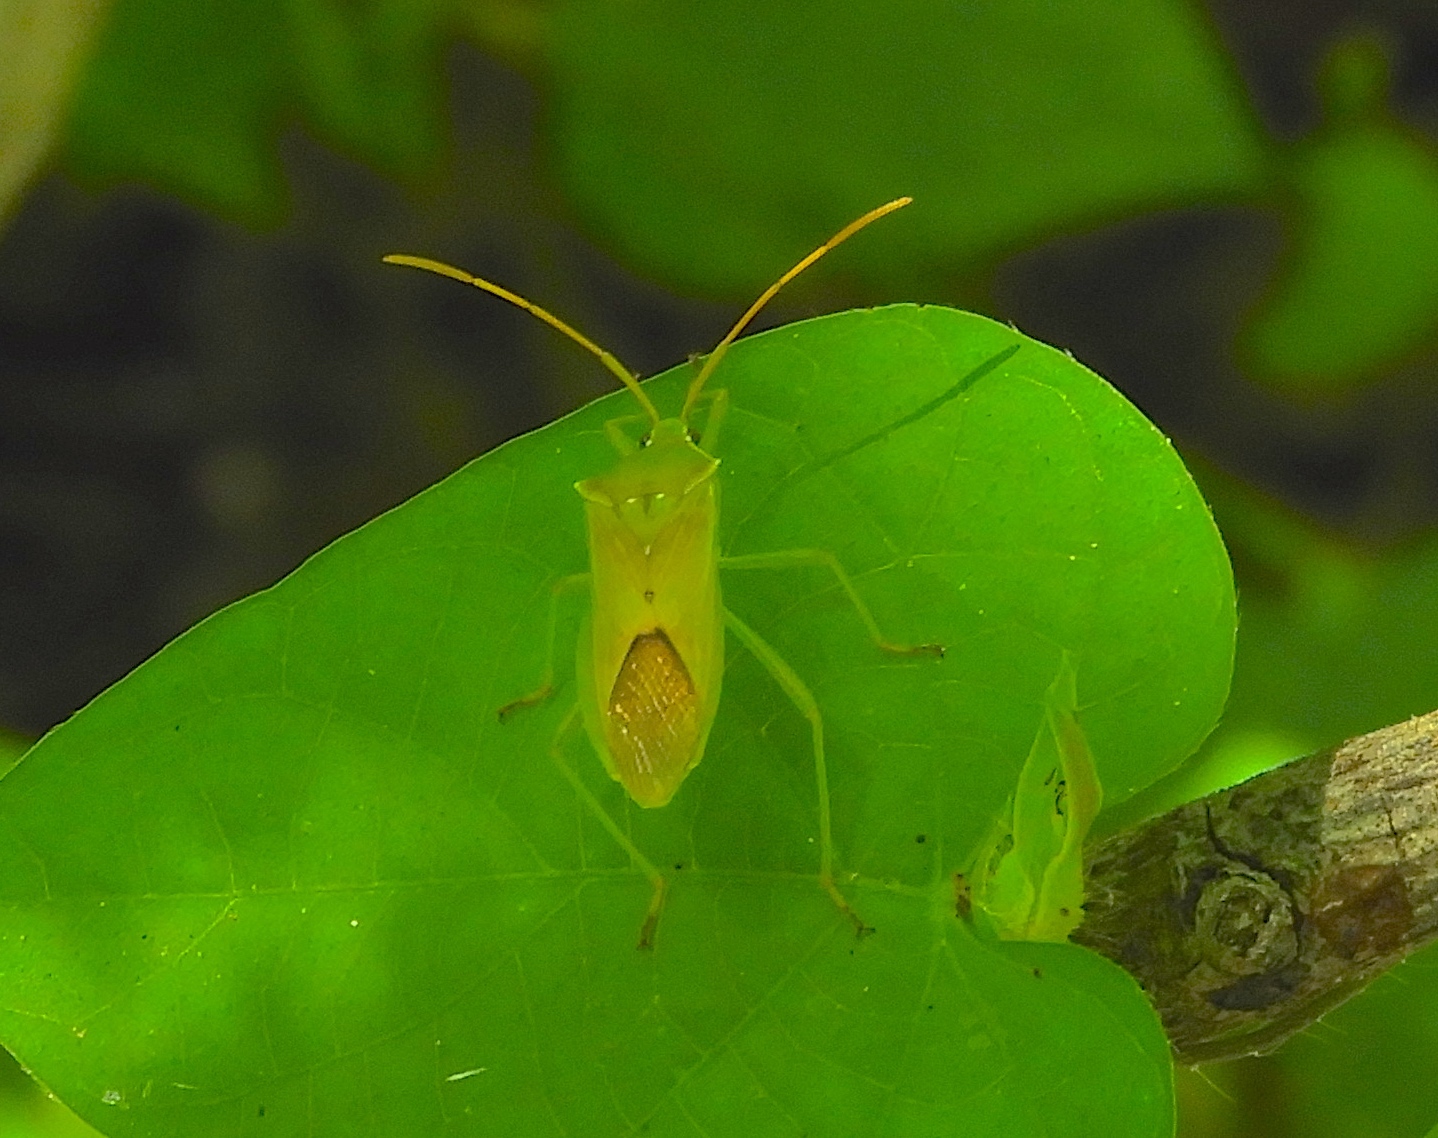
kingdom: Animalia
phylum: Arthropoda
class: Insecta
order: Hemiptera
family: Coreidae
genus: Savius
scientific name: Savius
